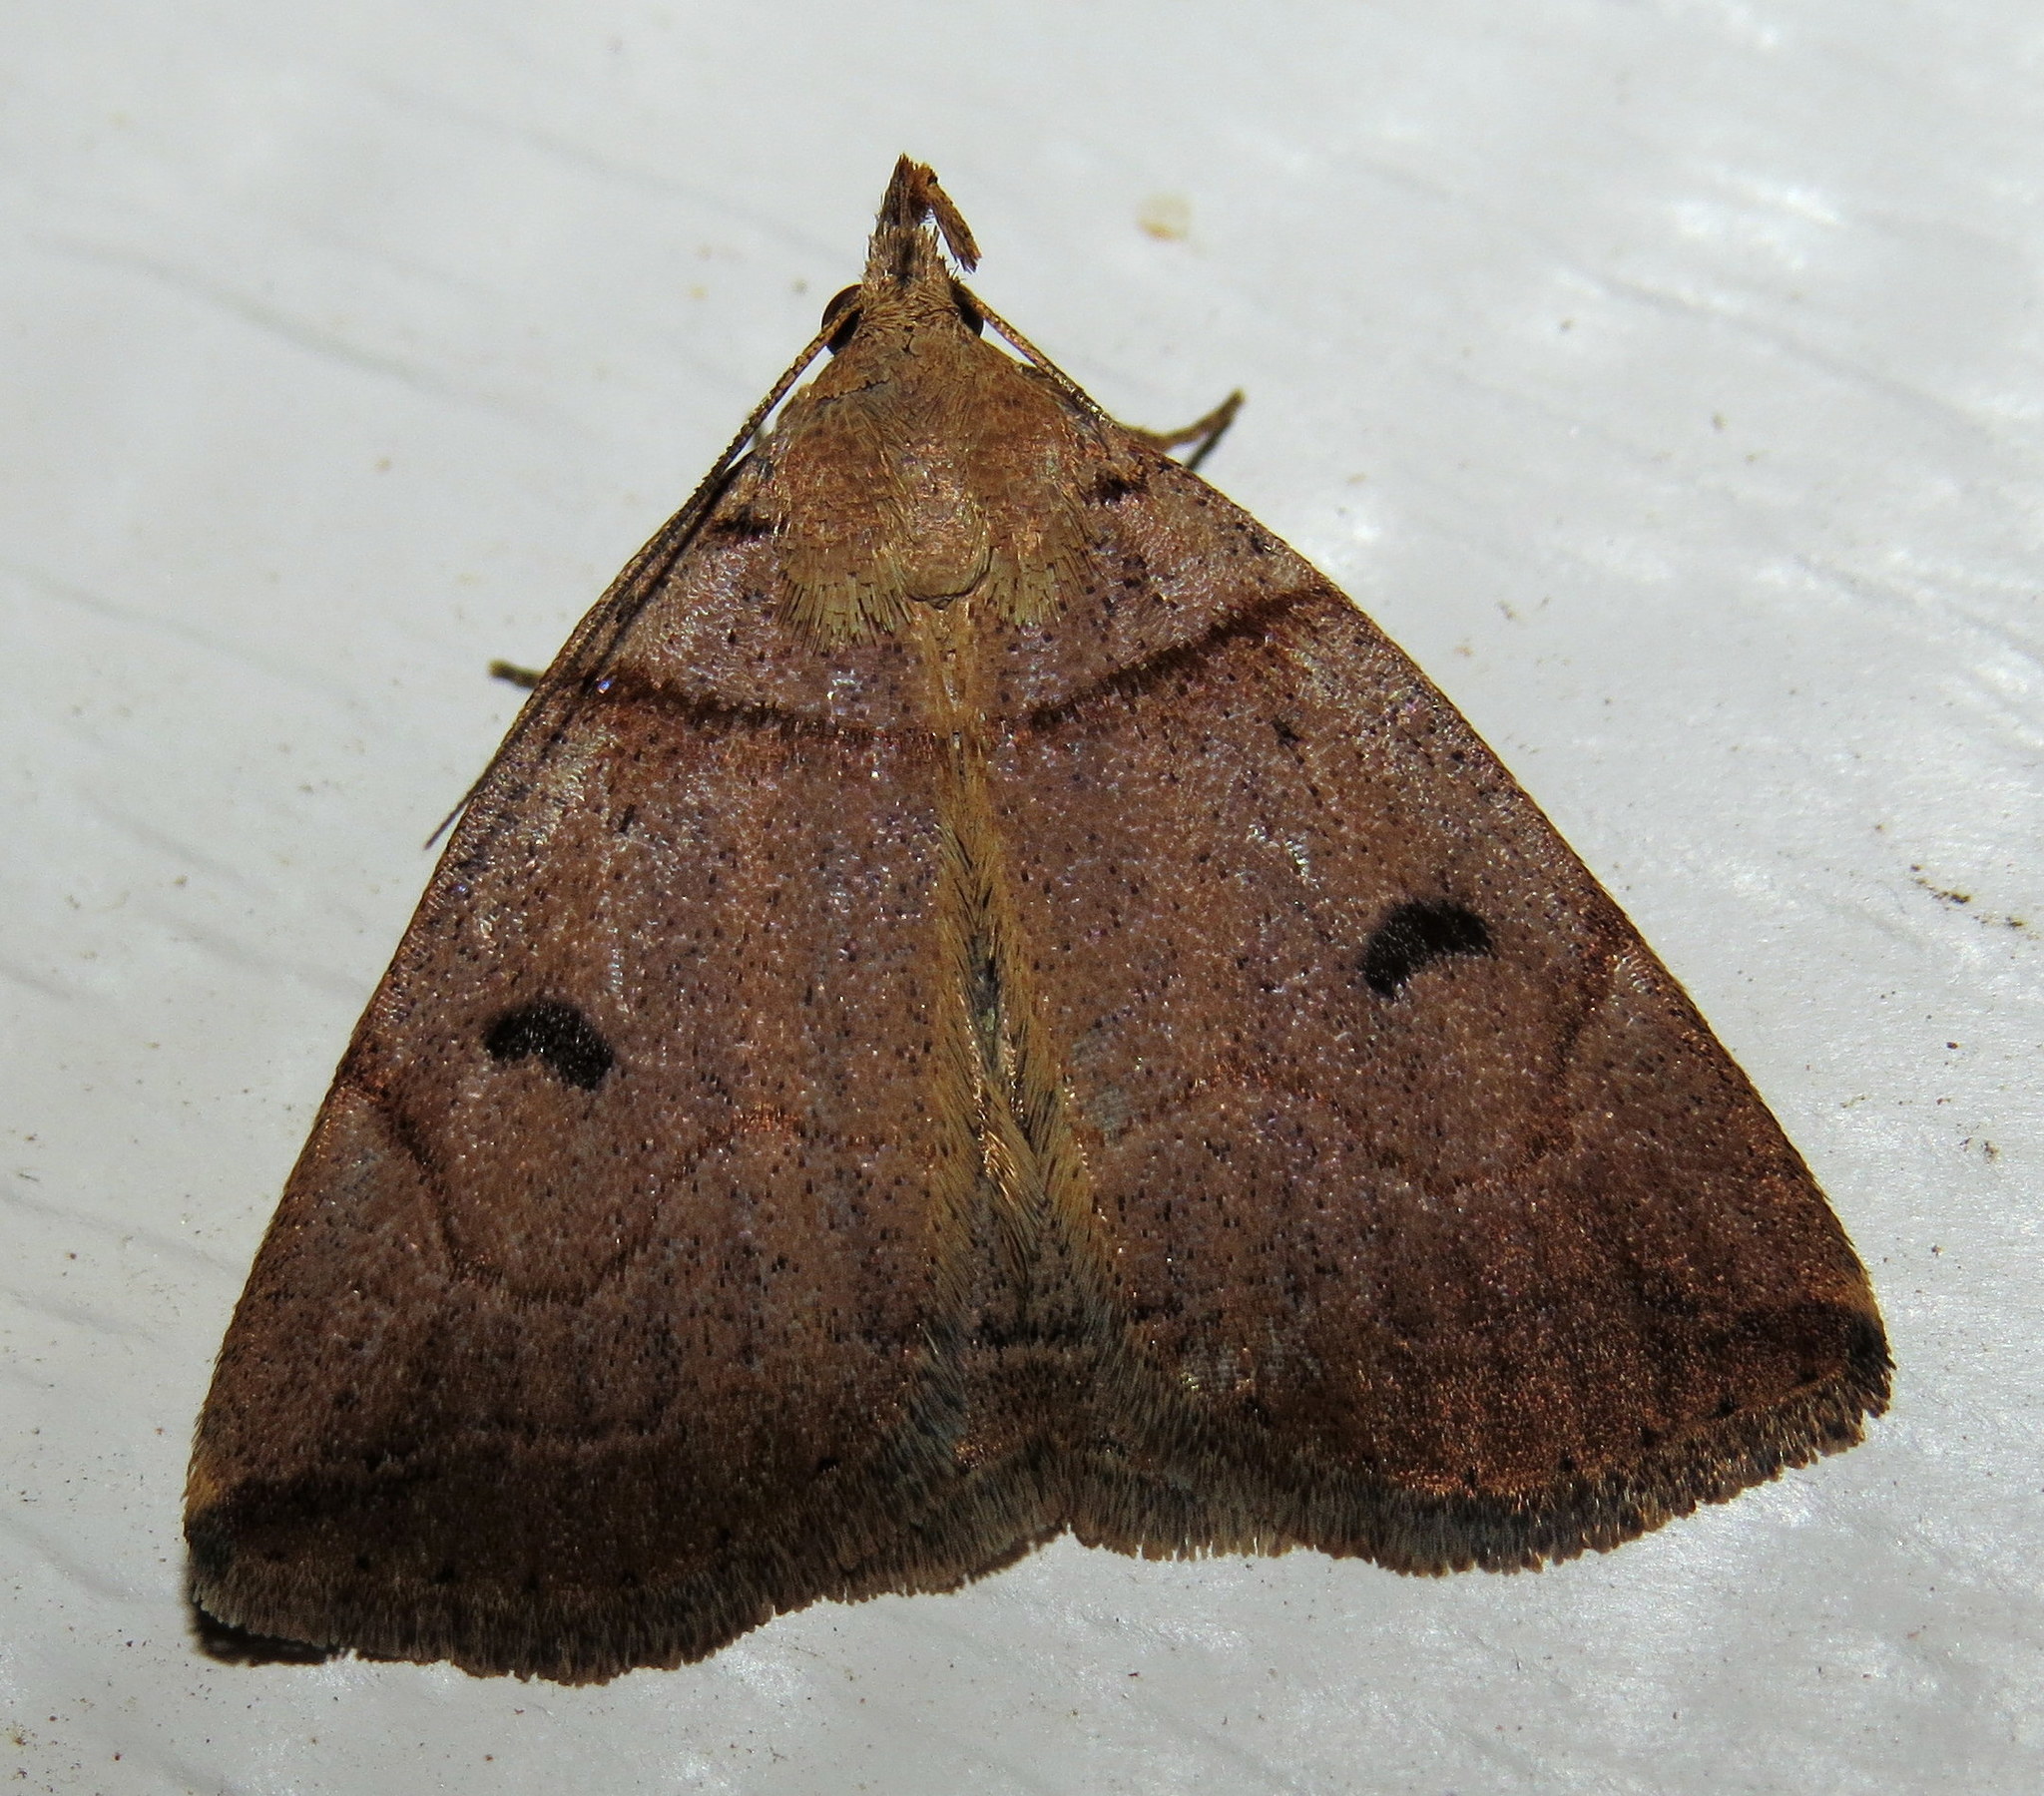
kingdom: Animalia
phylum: Arthropoda
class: Insecta
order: Lepidoptera
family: Erebidae
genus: Zanclognatha
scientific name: Zanclognatha laevigata
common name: Variable fan-foot
